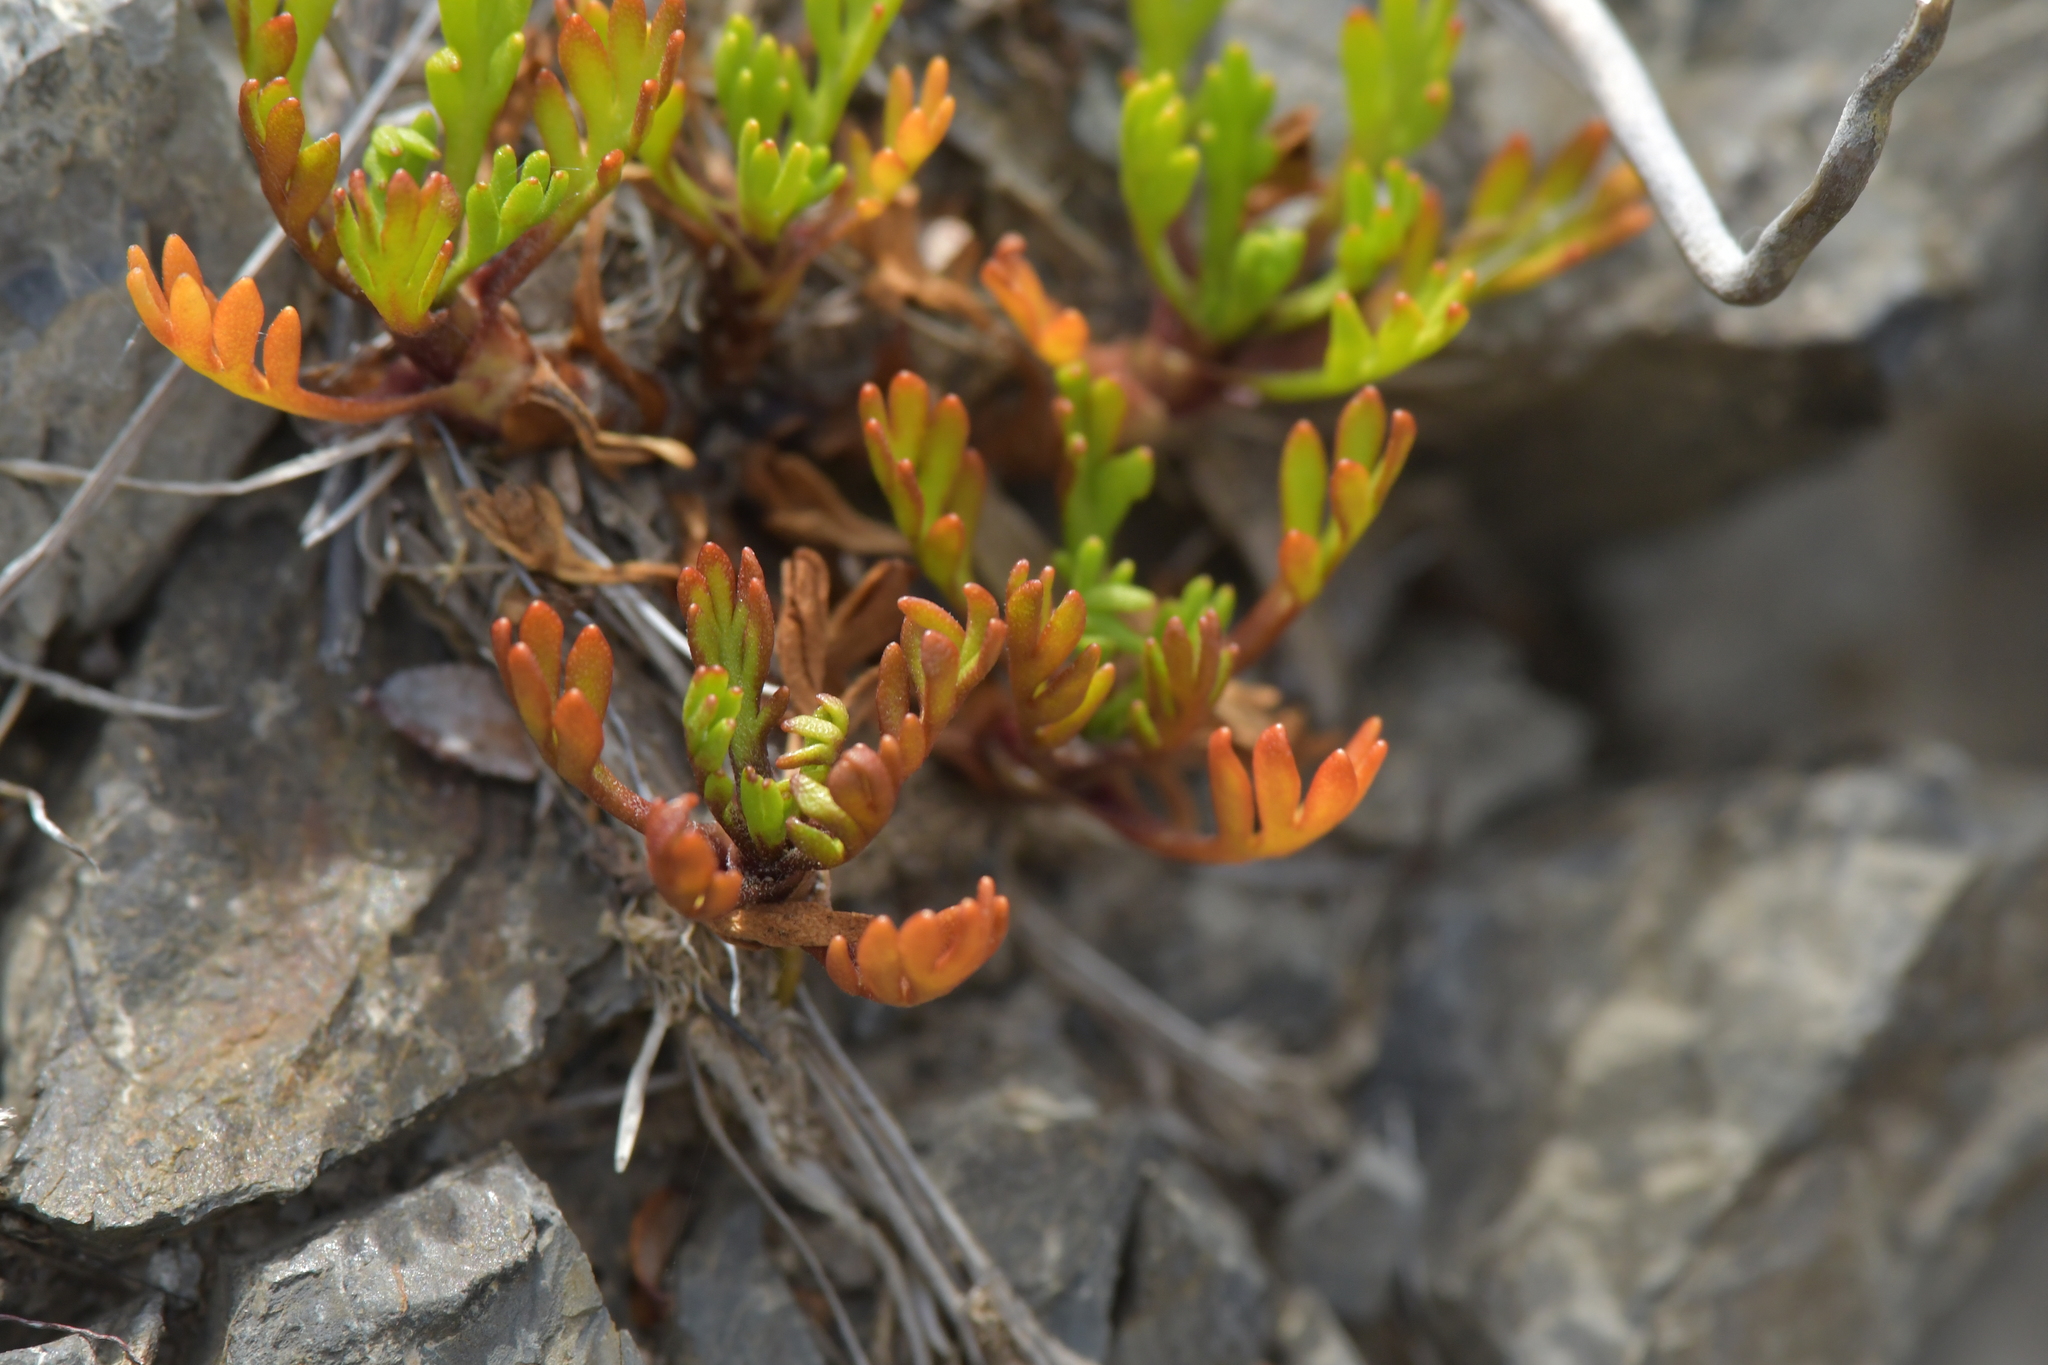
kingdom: Plantae
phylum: Tracheophyta
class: Magnoliopsida
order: Asterales
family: Asteraceae
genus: Leptinella
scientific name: Leptinella pyrethrifolia
